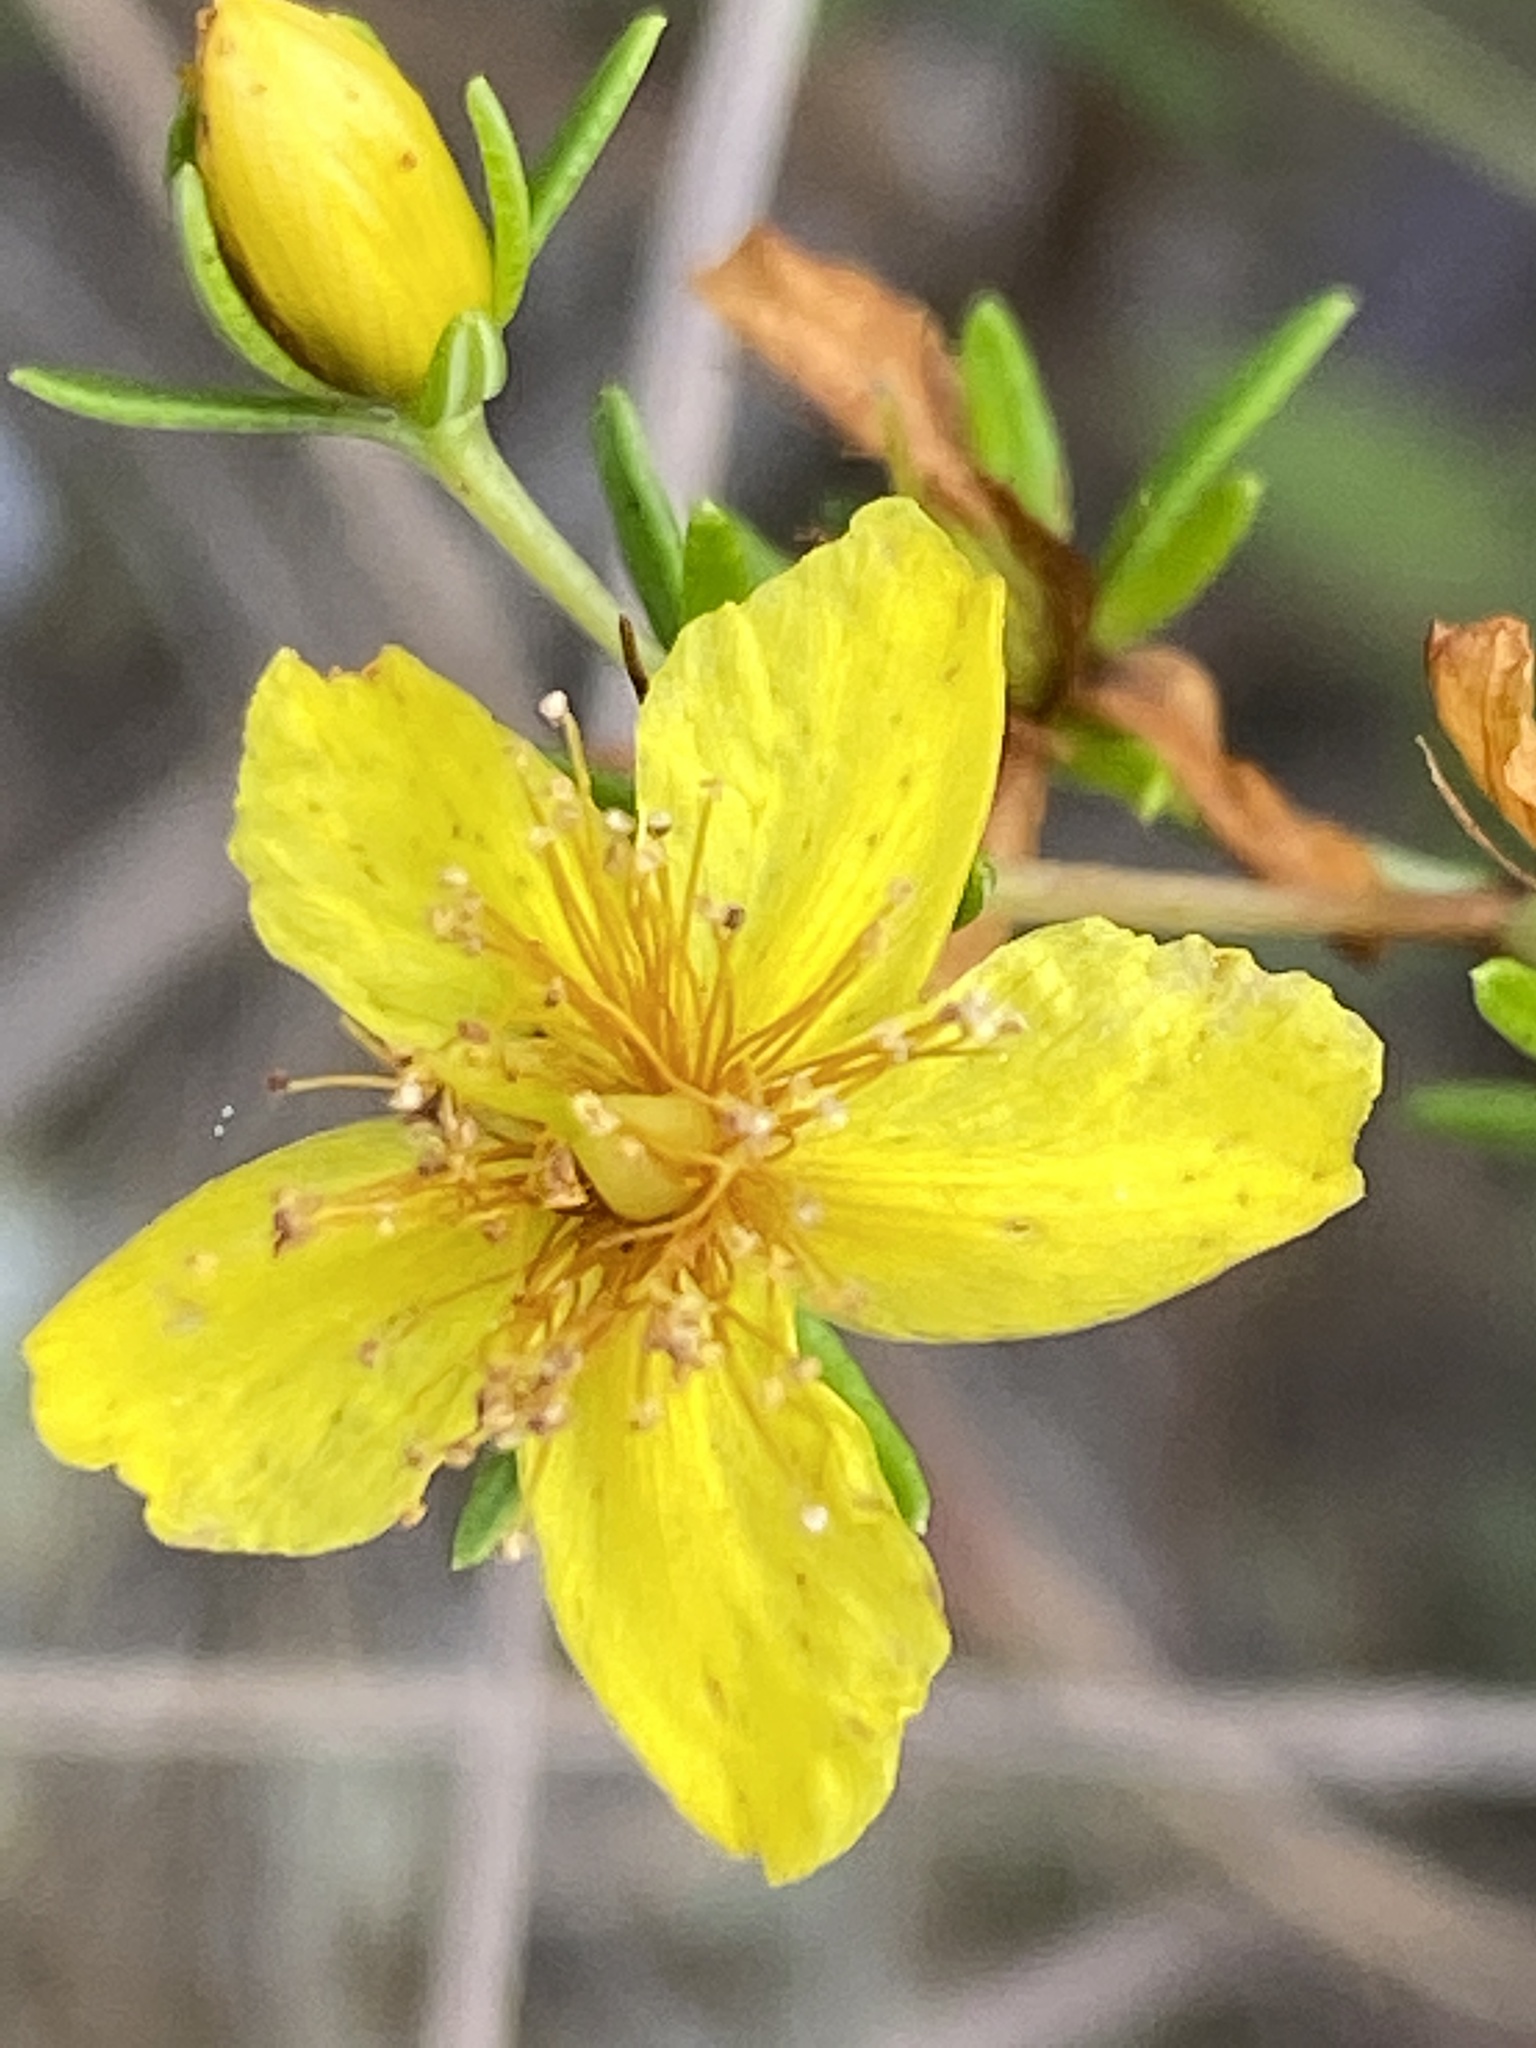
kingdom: Plantae
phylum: Tracheophyta
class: Magnoliopsida
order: Malpighiales
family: Hypericaceae
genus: Hypericum
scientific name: Hypericum lloydii
